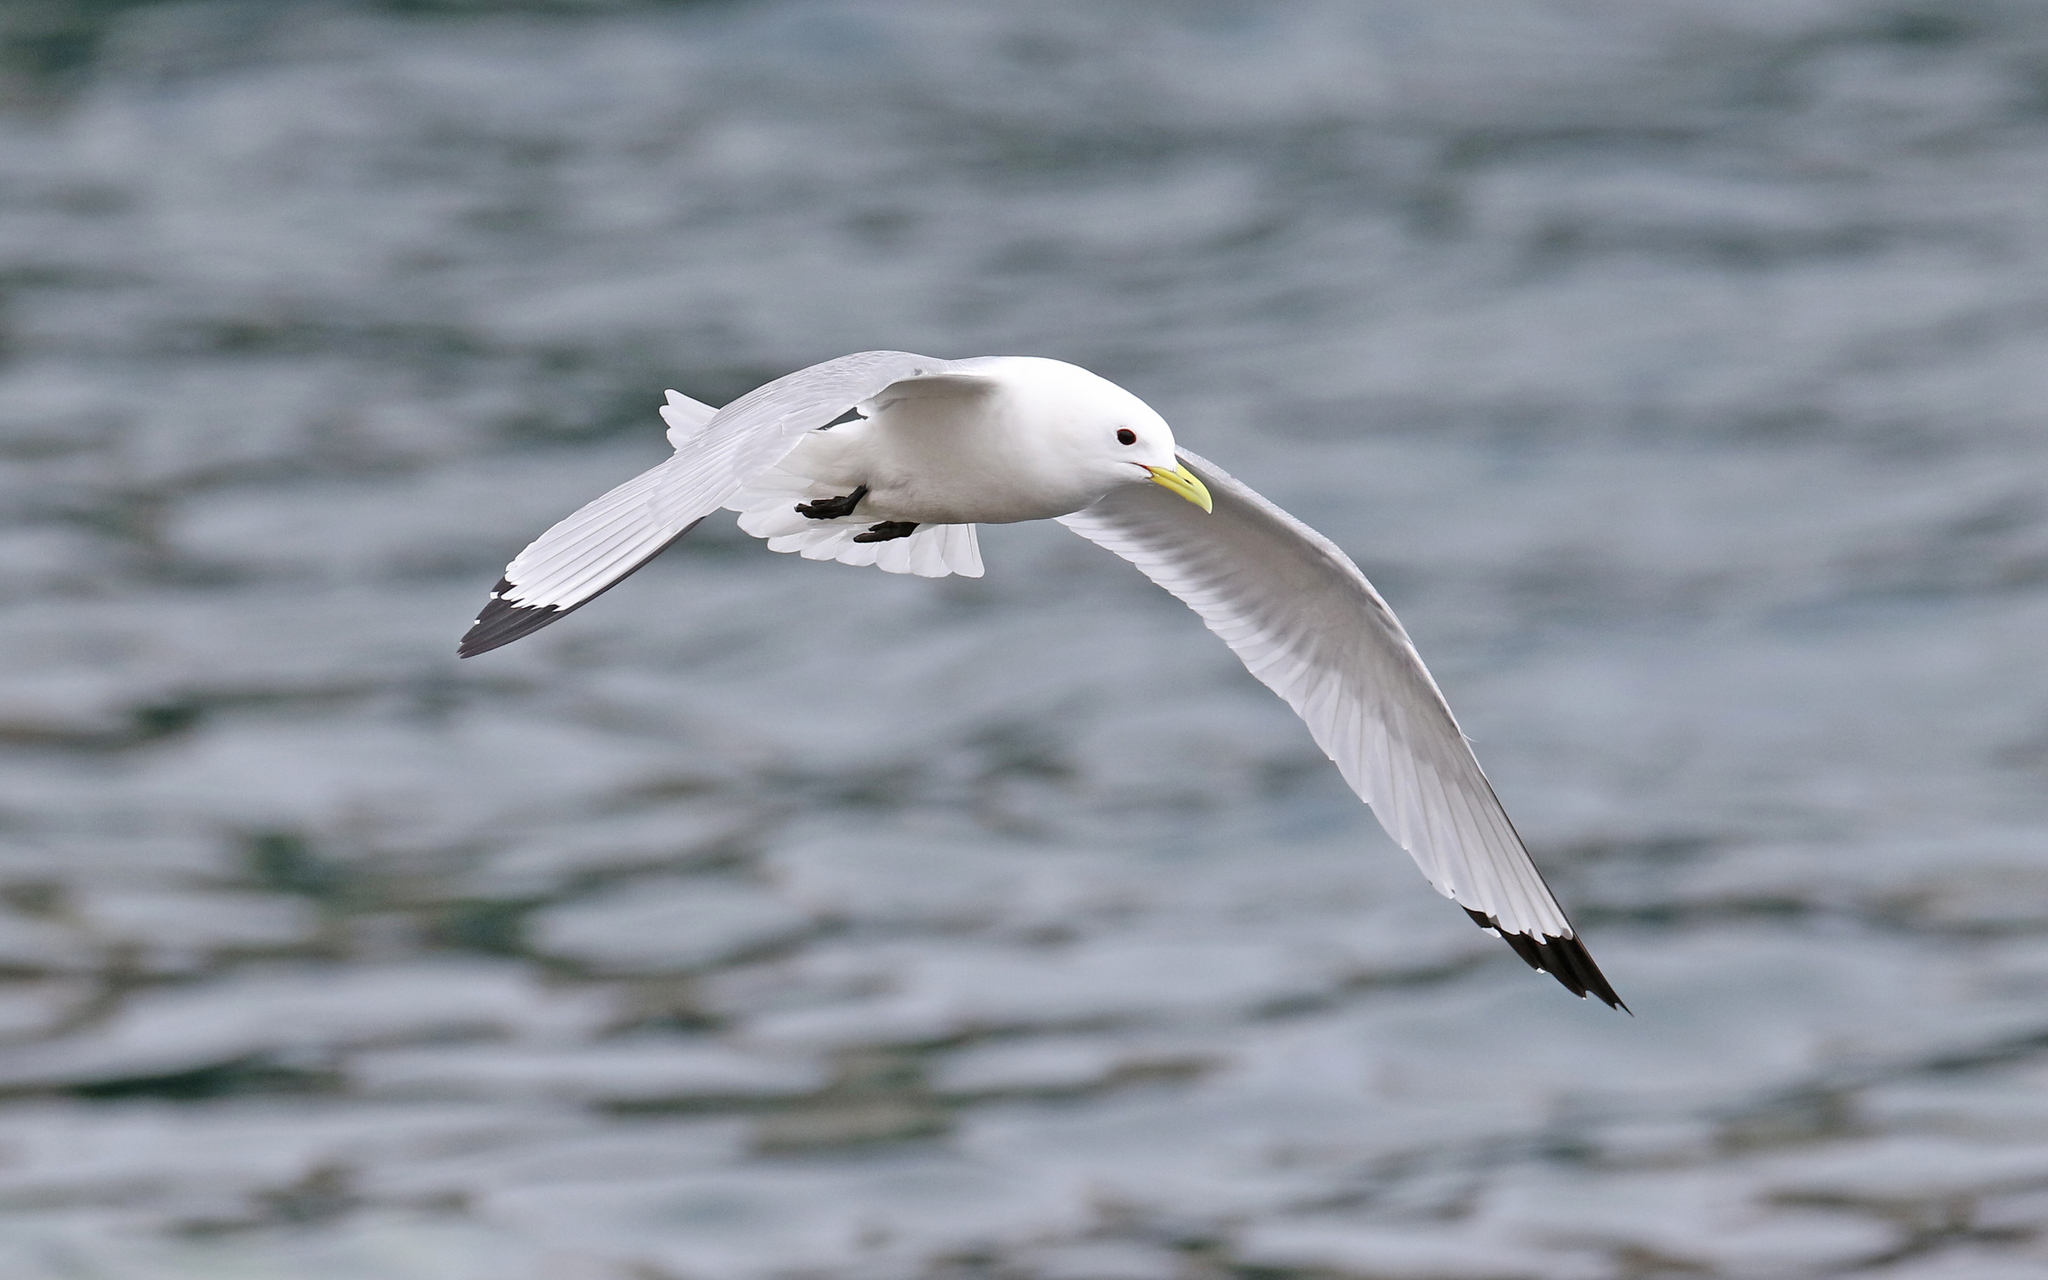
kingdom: Animalia
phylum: Chordata
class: Aves
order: Charadriiformes
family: Laridae
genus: Rissa
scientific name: Rissa tridactyla
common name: Black-legged kittiwake
